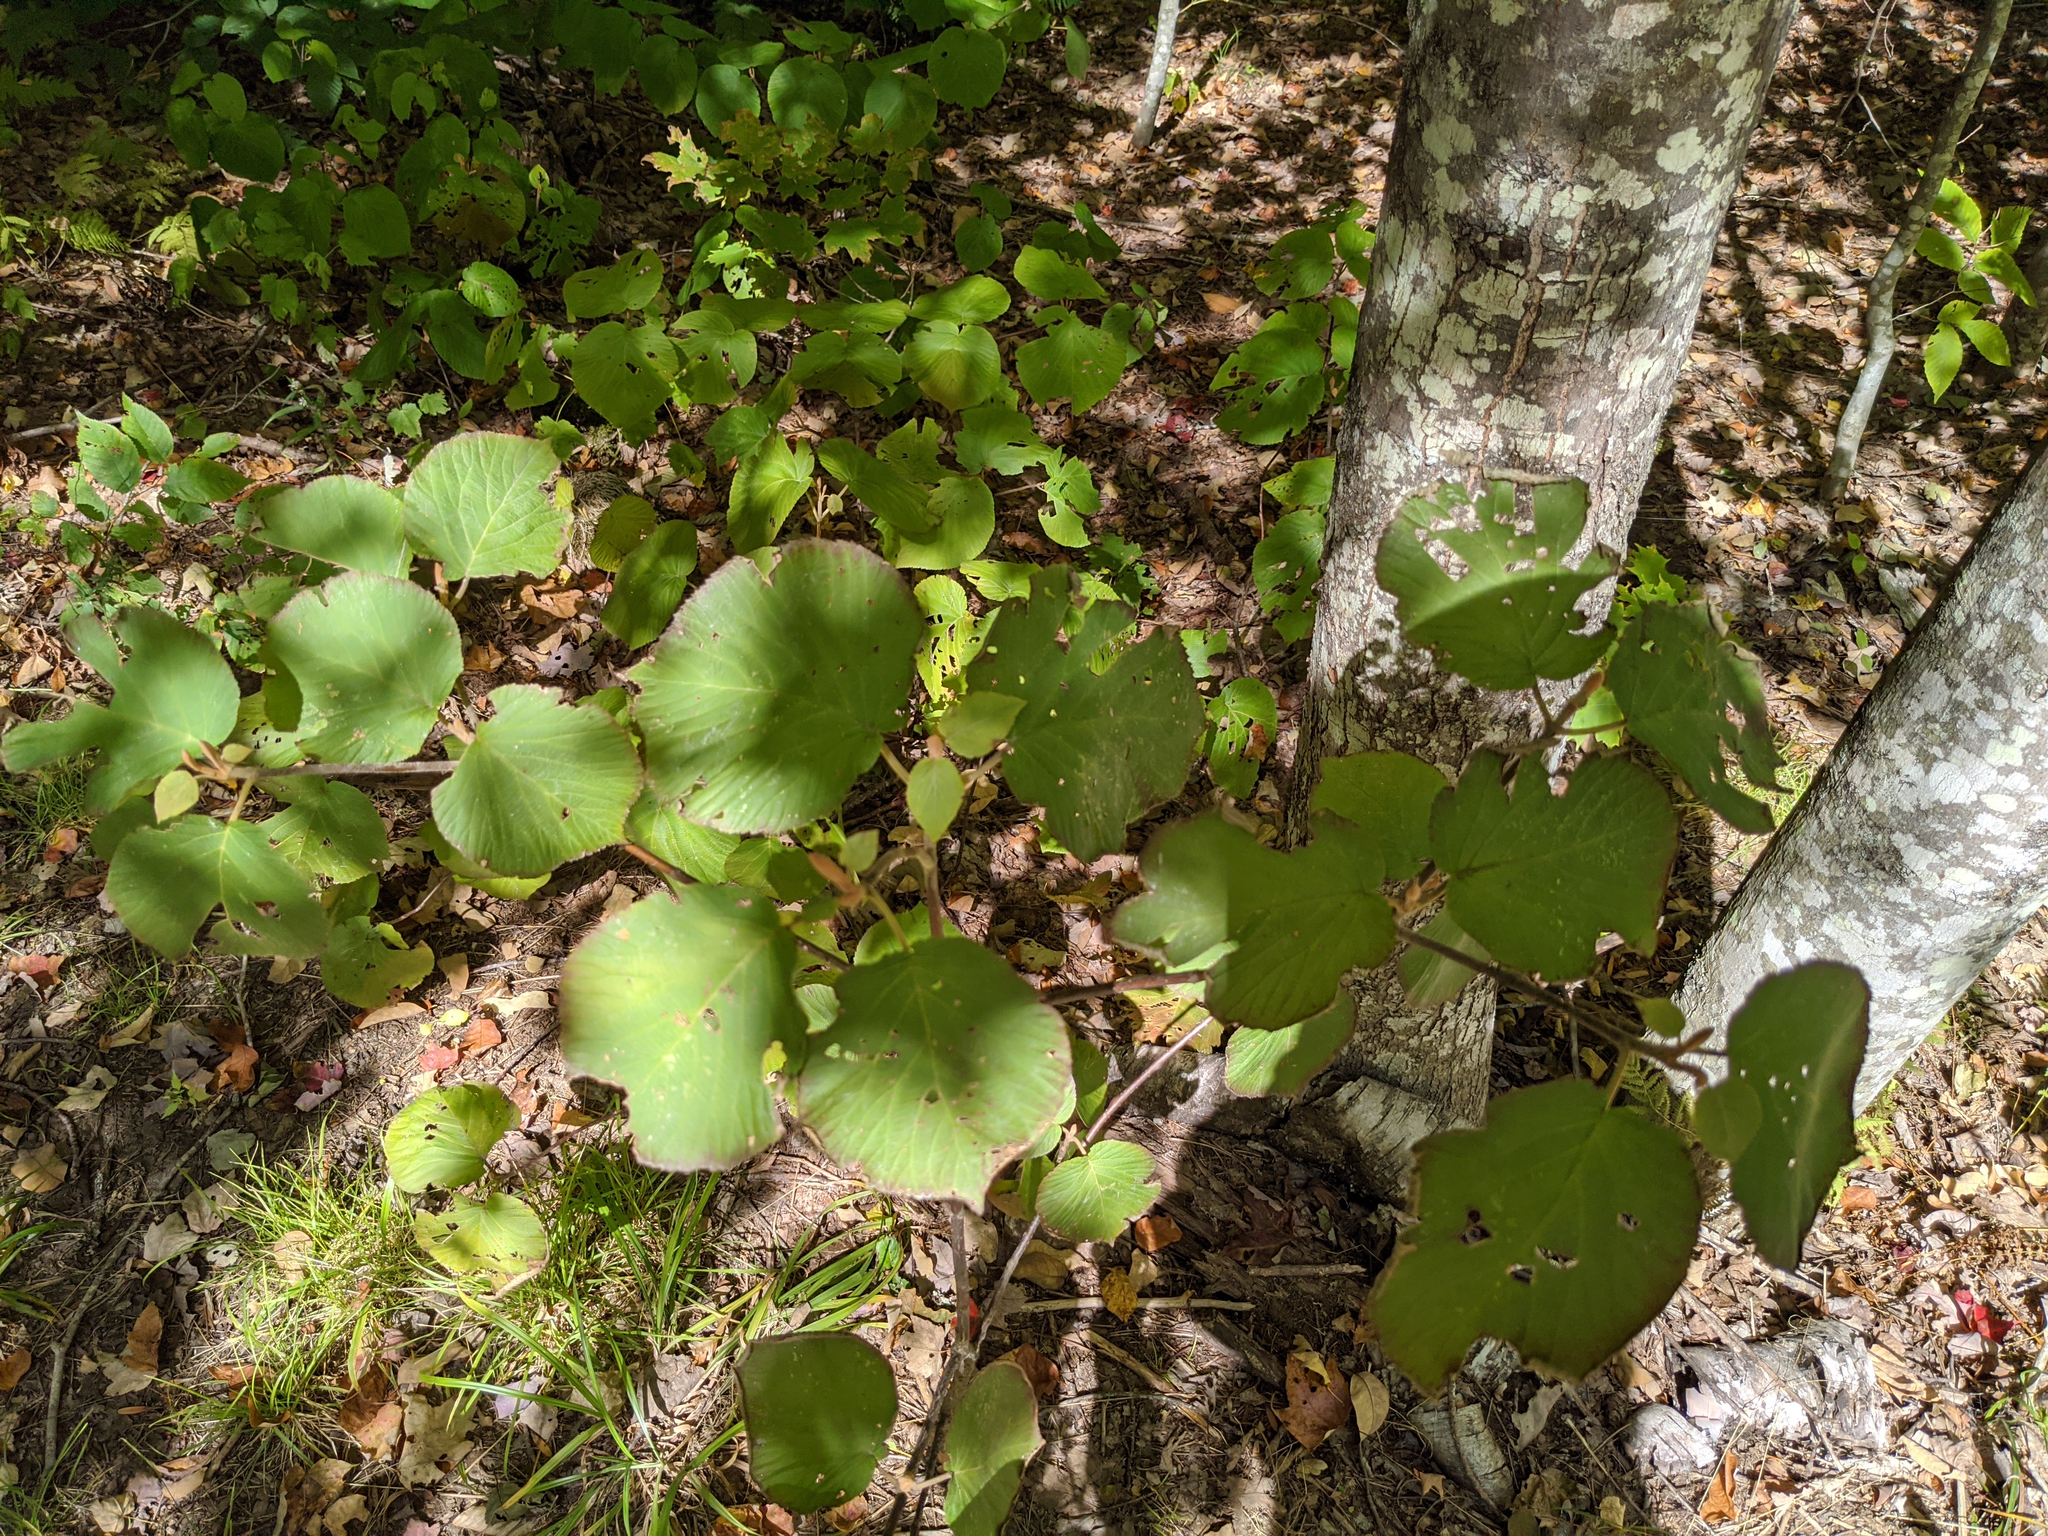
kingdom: Plantae
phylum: Tracheophyta
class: Magnoliopsida
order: Dipsacales
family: Viburnaceae
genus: Viburnum
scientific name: Viburnum lantanoides
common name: Hobblebush
